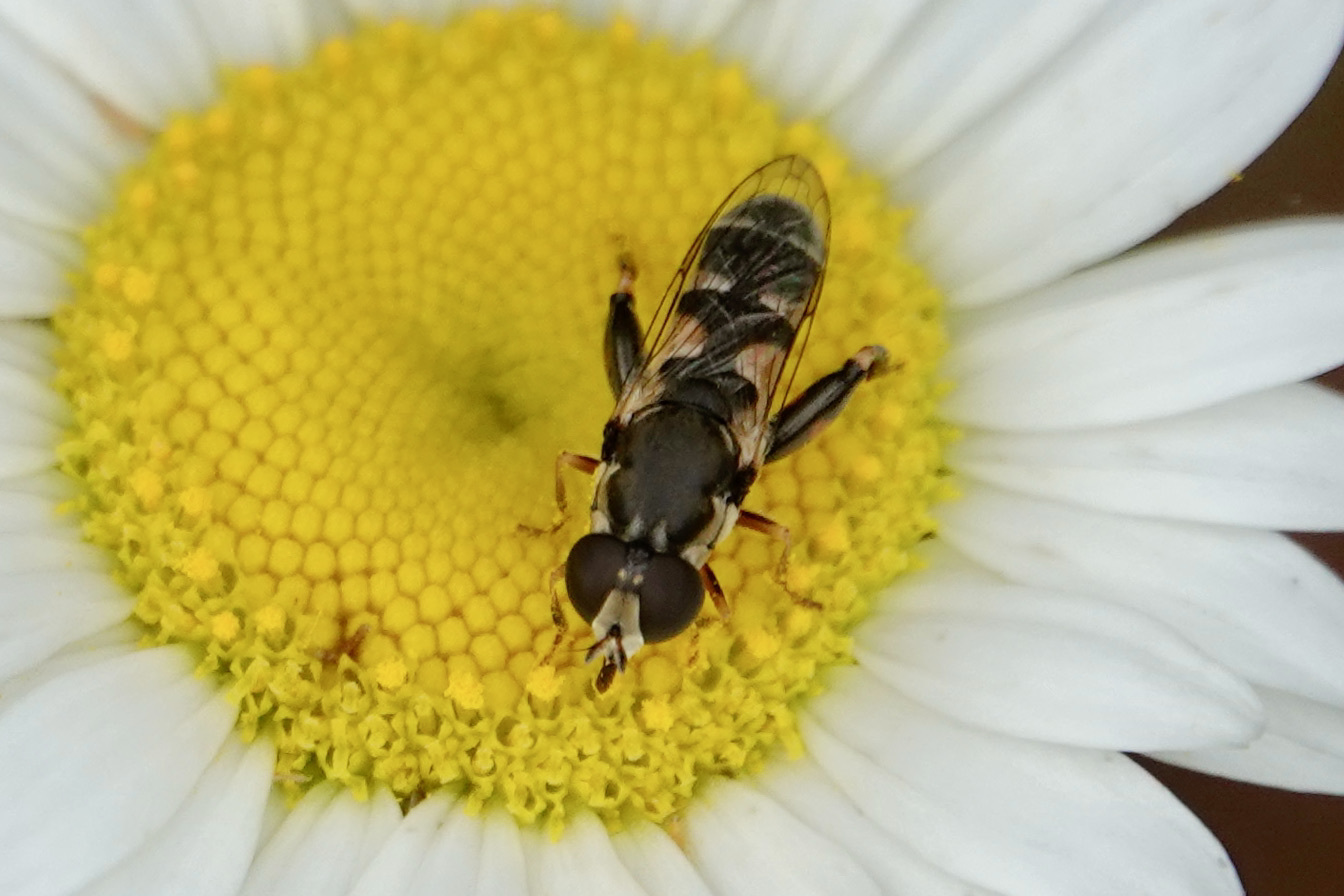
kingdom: Animalia
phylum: Arthropoda
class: Insecta
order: Diptera
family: Syrphidae
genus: Syritta
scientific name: Syritta pipiens
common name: Hover fly
